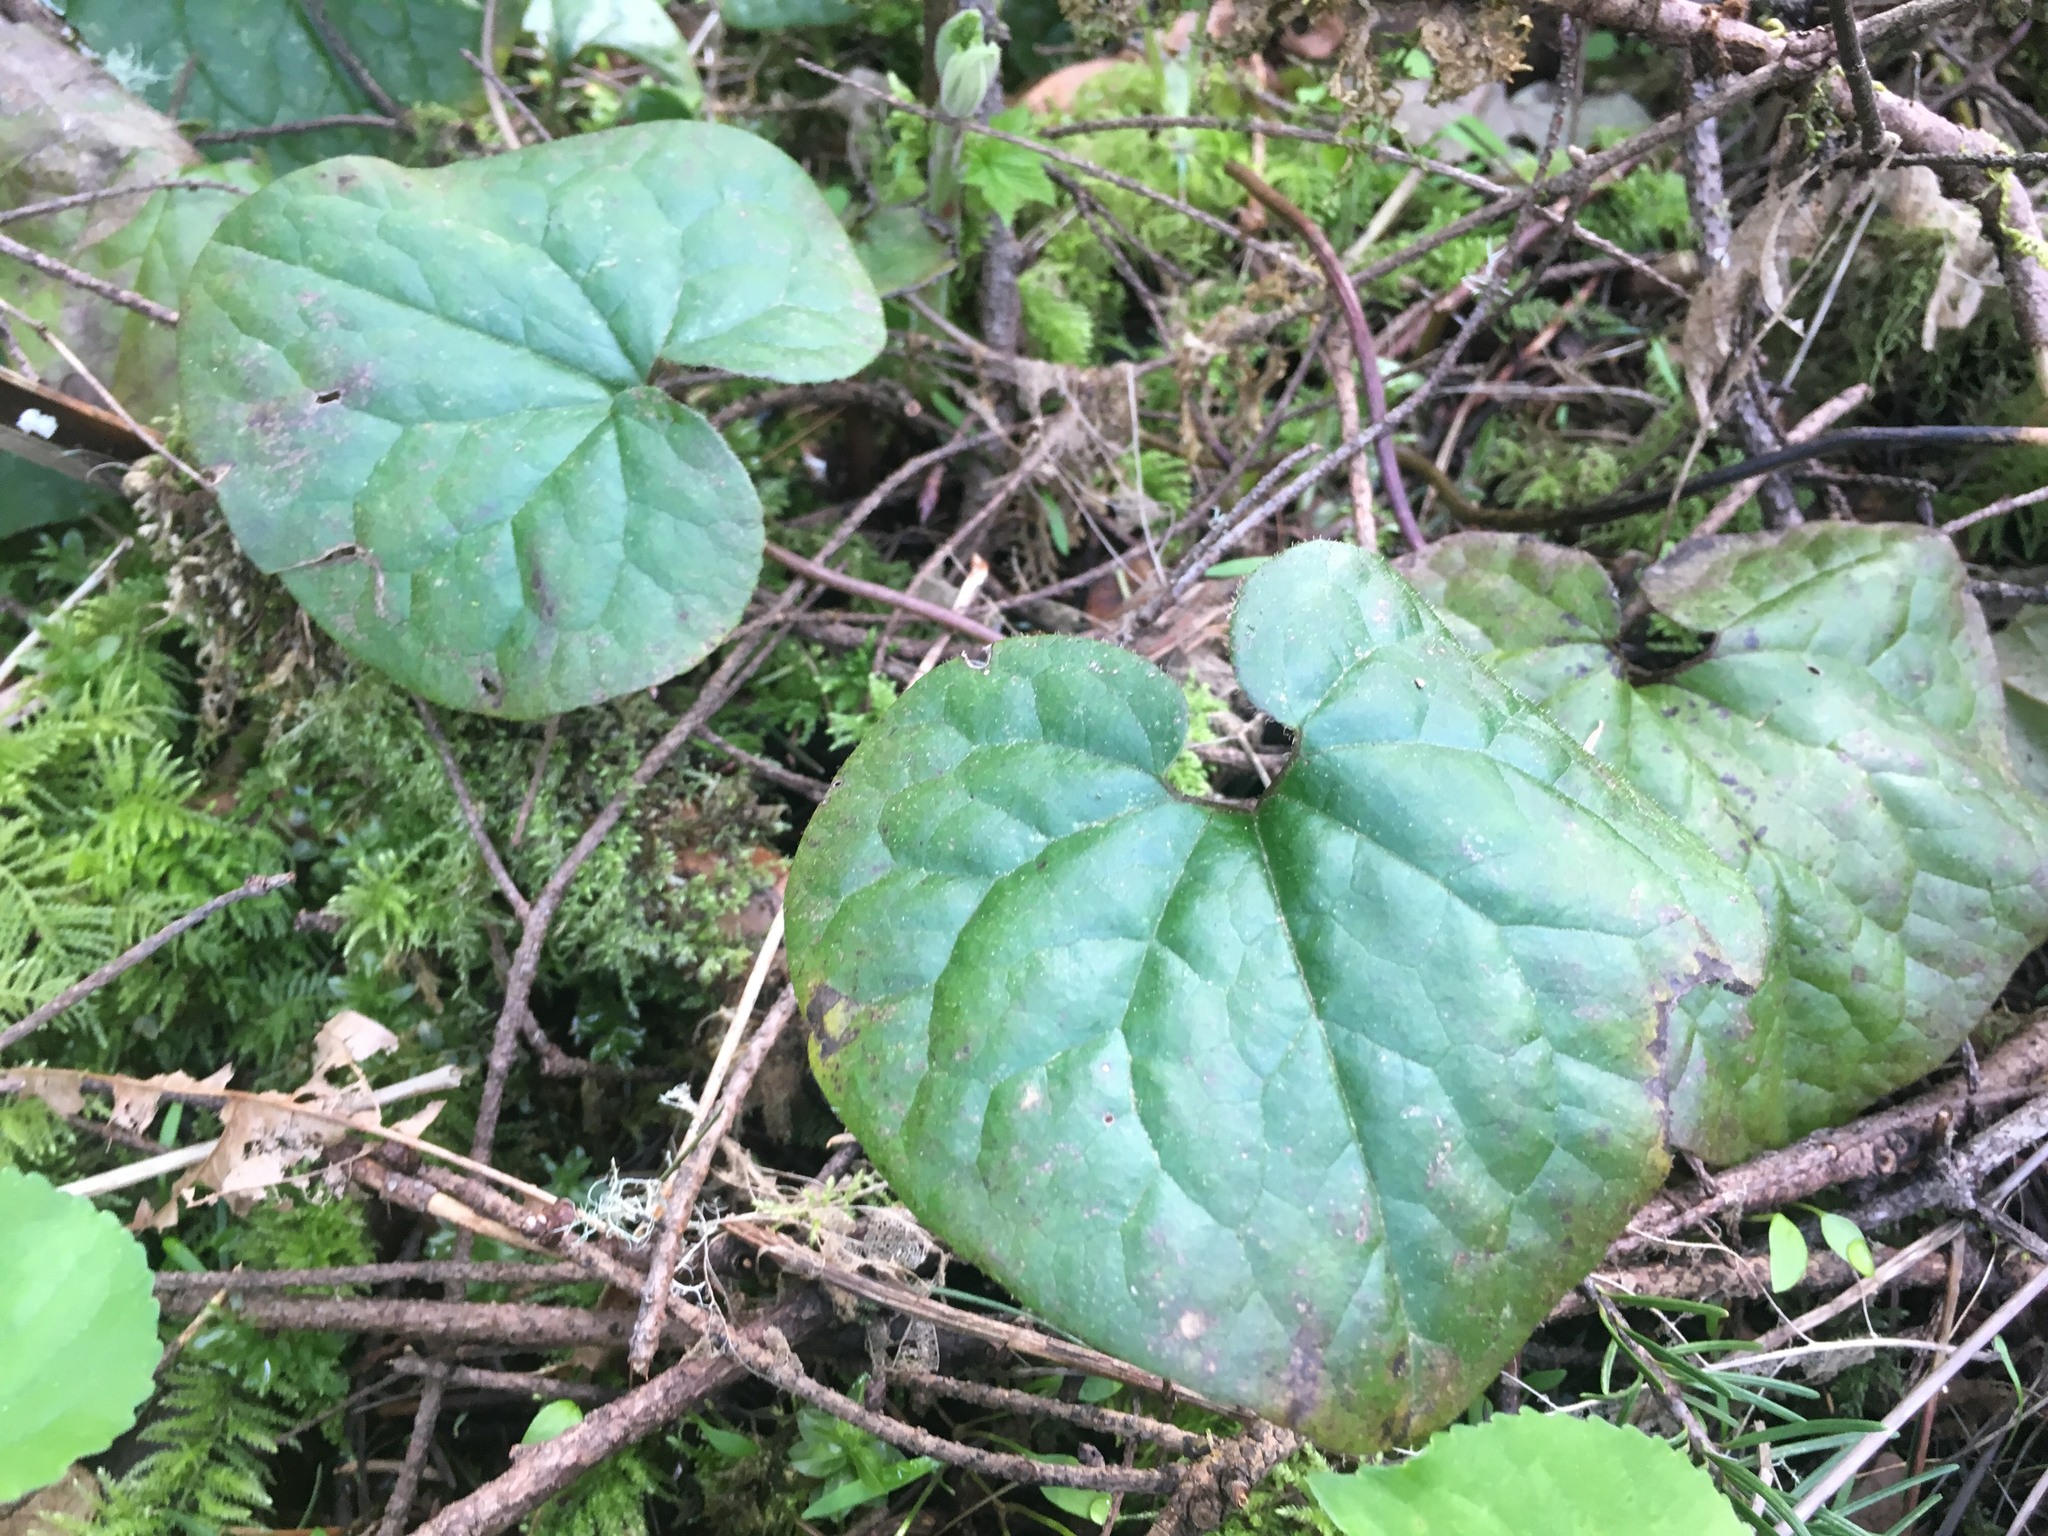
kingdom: Plantae
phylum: Tracheophyta
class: Magnoliopsida
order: Piperales
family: Aristolochiaceae
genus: Asarum
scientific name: Asarum caudatum
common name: Wild ginger
